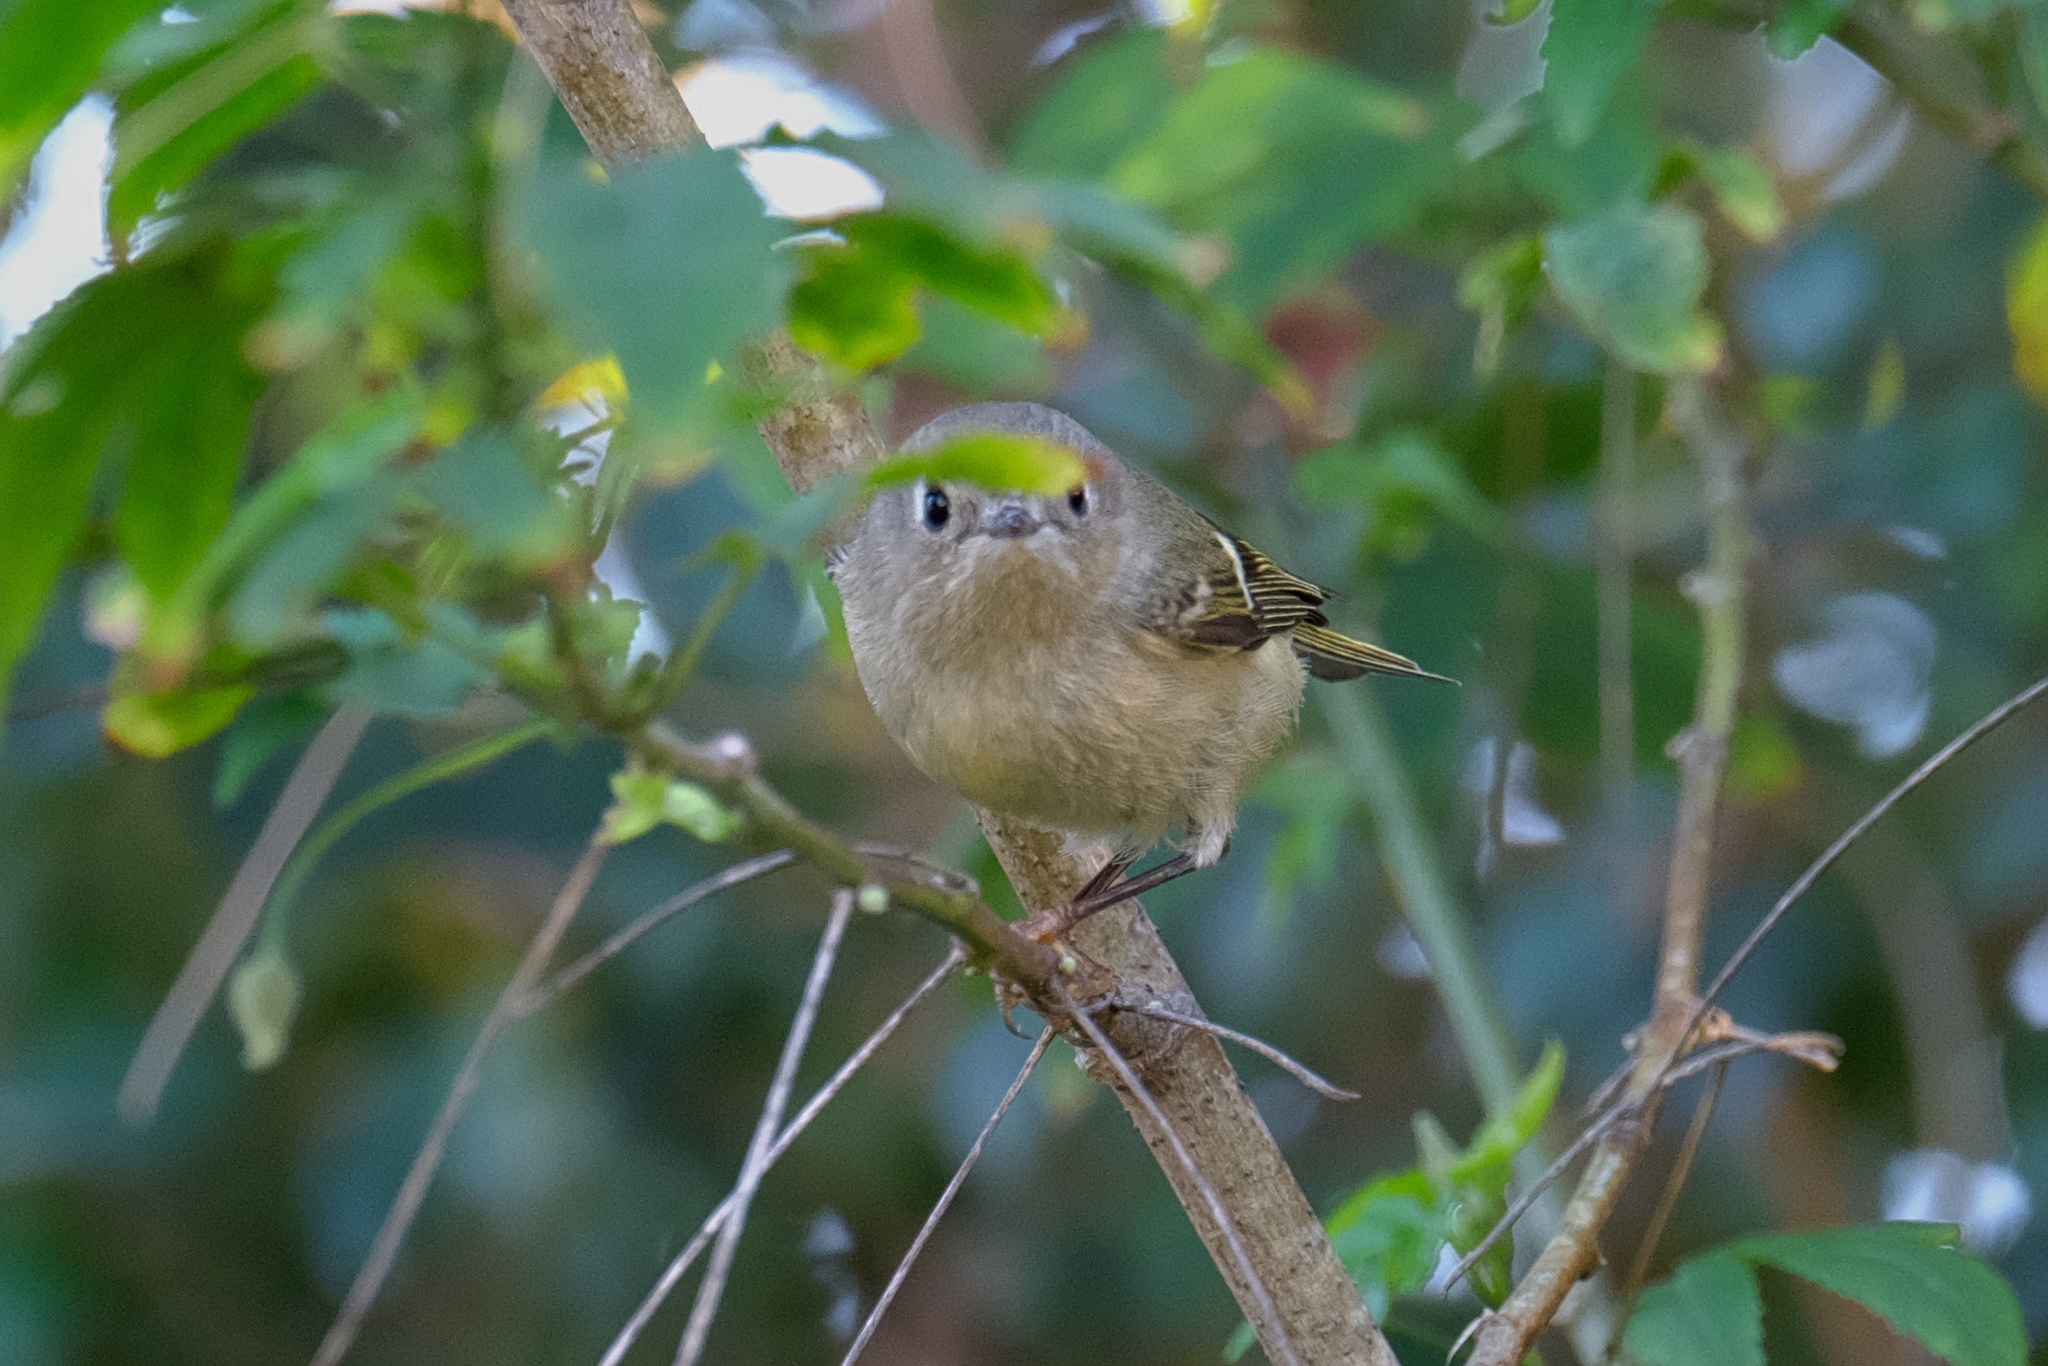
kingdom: Animalia
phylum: Chordata
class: Aves
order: Passeriformes
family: Regulidae
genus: Regulus
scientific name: Regulus calendula
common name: Ruby-crowned kinglet
